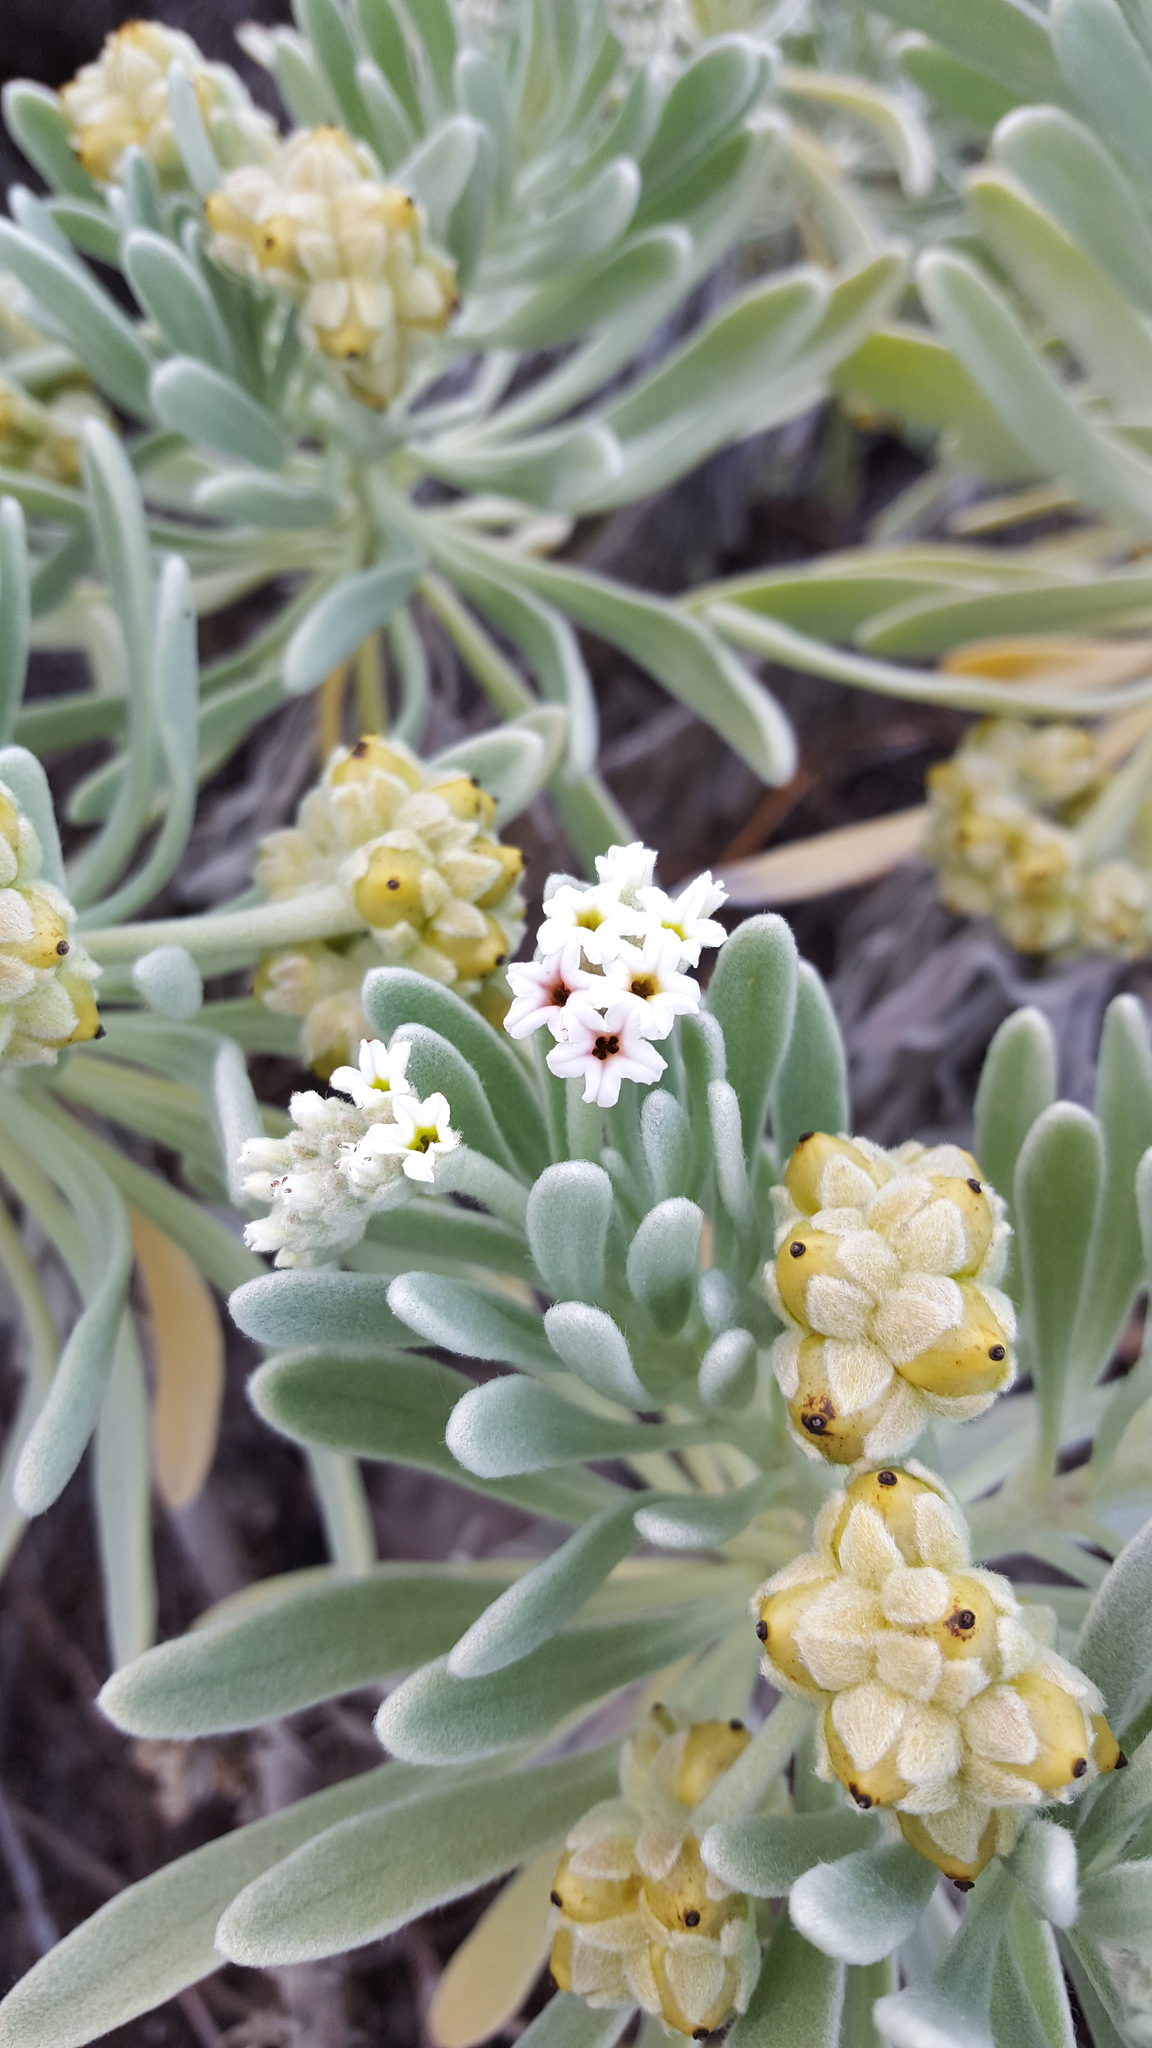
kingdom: Plantae
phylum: Tracheophyta
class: Magnoliopsida
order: Boraginales
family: Heliotropiaceae
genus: Tournefortia
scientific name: Tournefortia gnaphalodes
